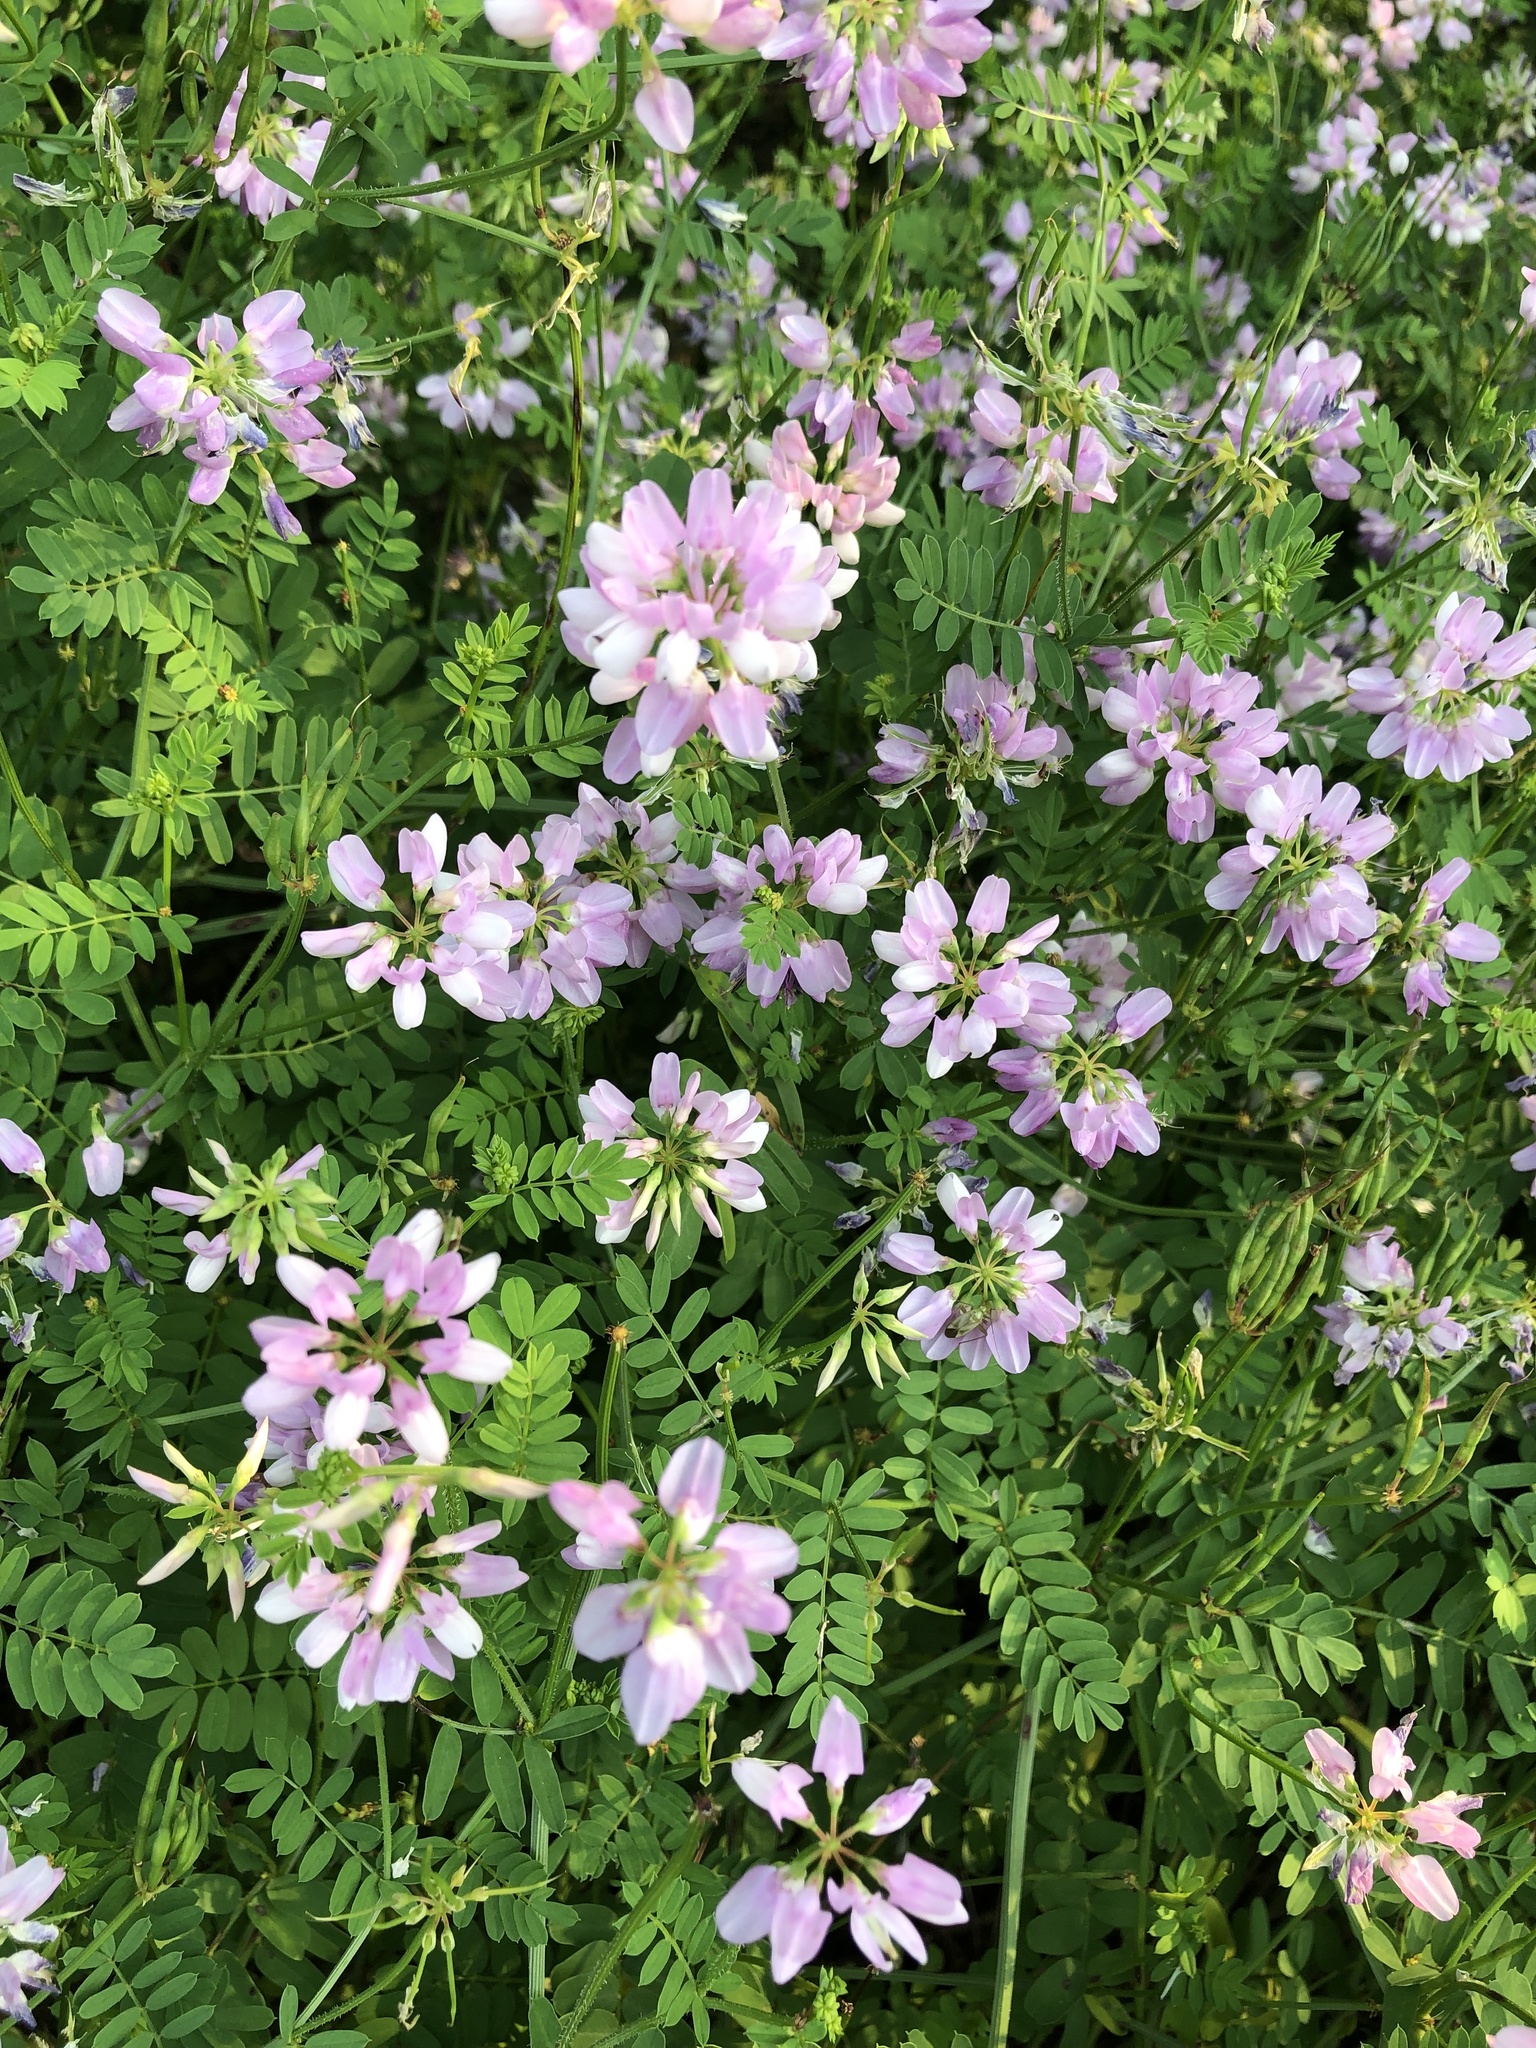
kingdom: Plantae
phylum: Tracheophyta
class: Magnoliopsida
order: Fabales
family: Fabaceae
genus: Coronilla
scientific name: Coronilla varia
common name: Crownvetch
